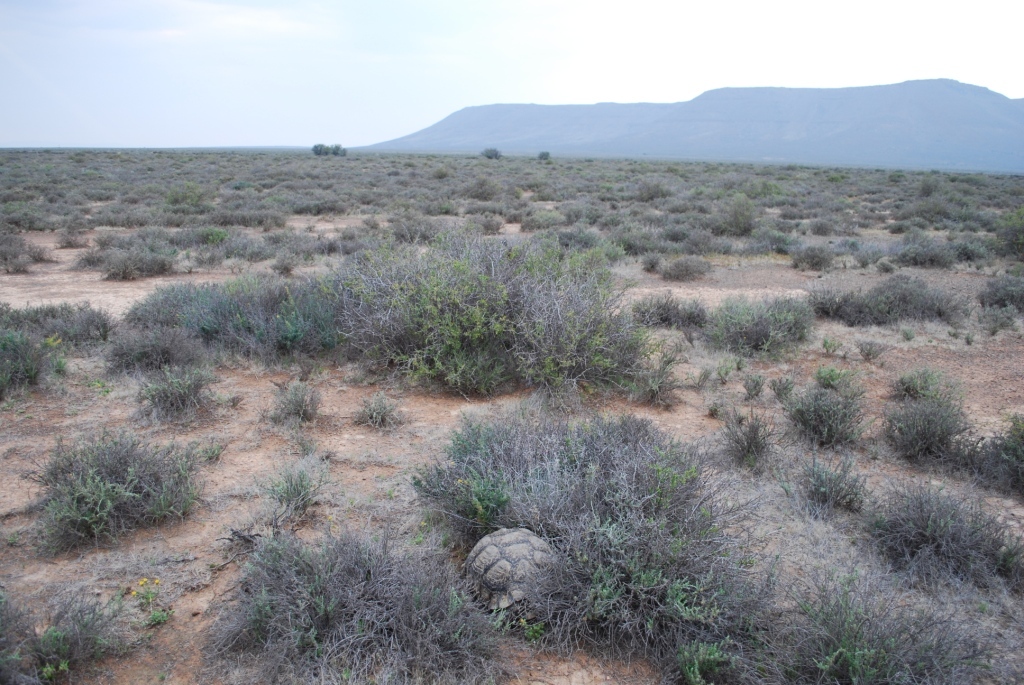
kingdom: Animalia
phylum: Chordata
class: Testudines
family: Testudinidae
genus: Stigmochelys
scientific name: Stigmochelys pardalis
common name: Leopard tortoise
